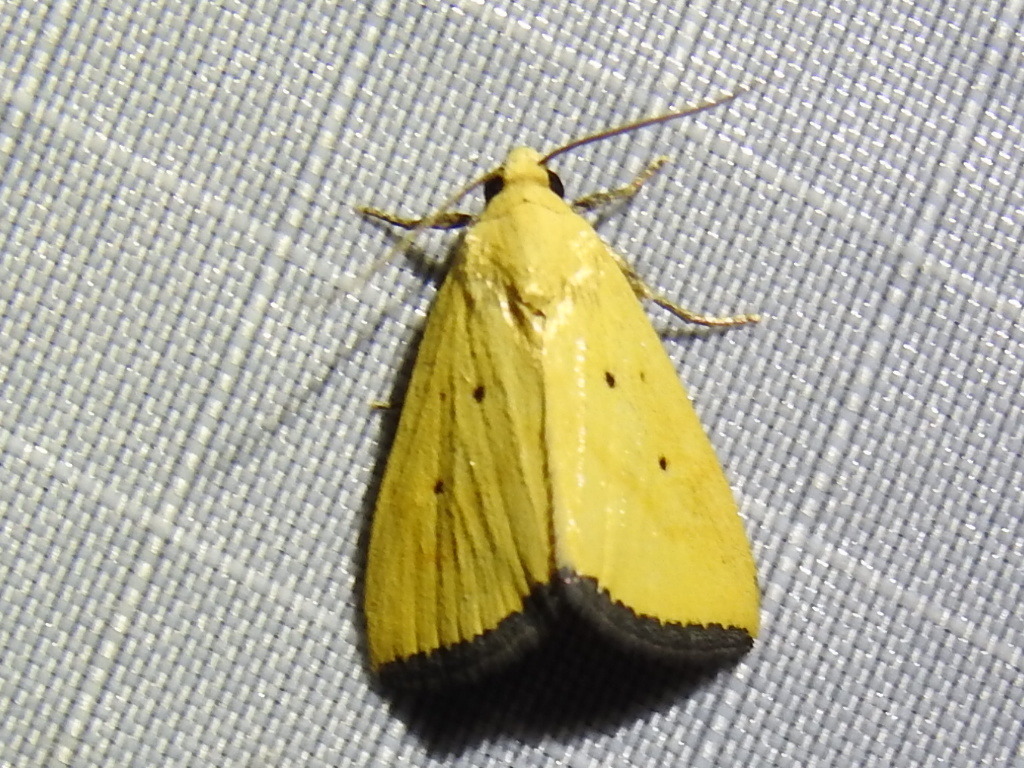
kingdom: Animalia
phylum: Arthropoda
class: Insecta
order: Lepidoptera
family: Noctuidae
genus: Marimatha
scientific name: Marimatha nigrofimbria
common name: Black-bordered lemon moth
